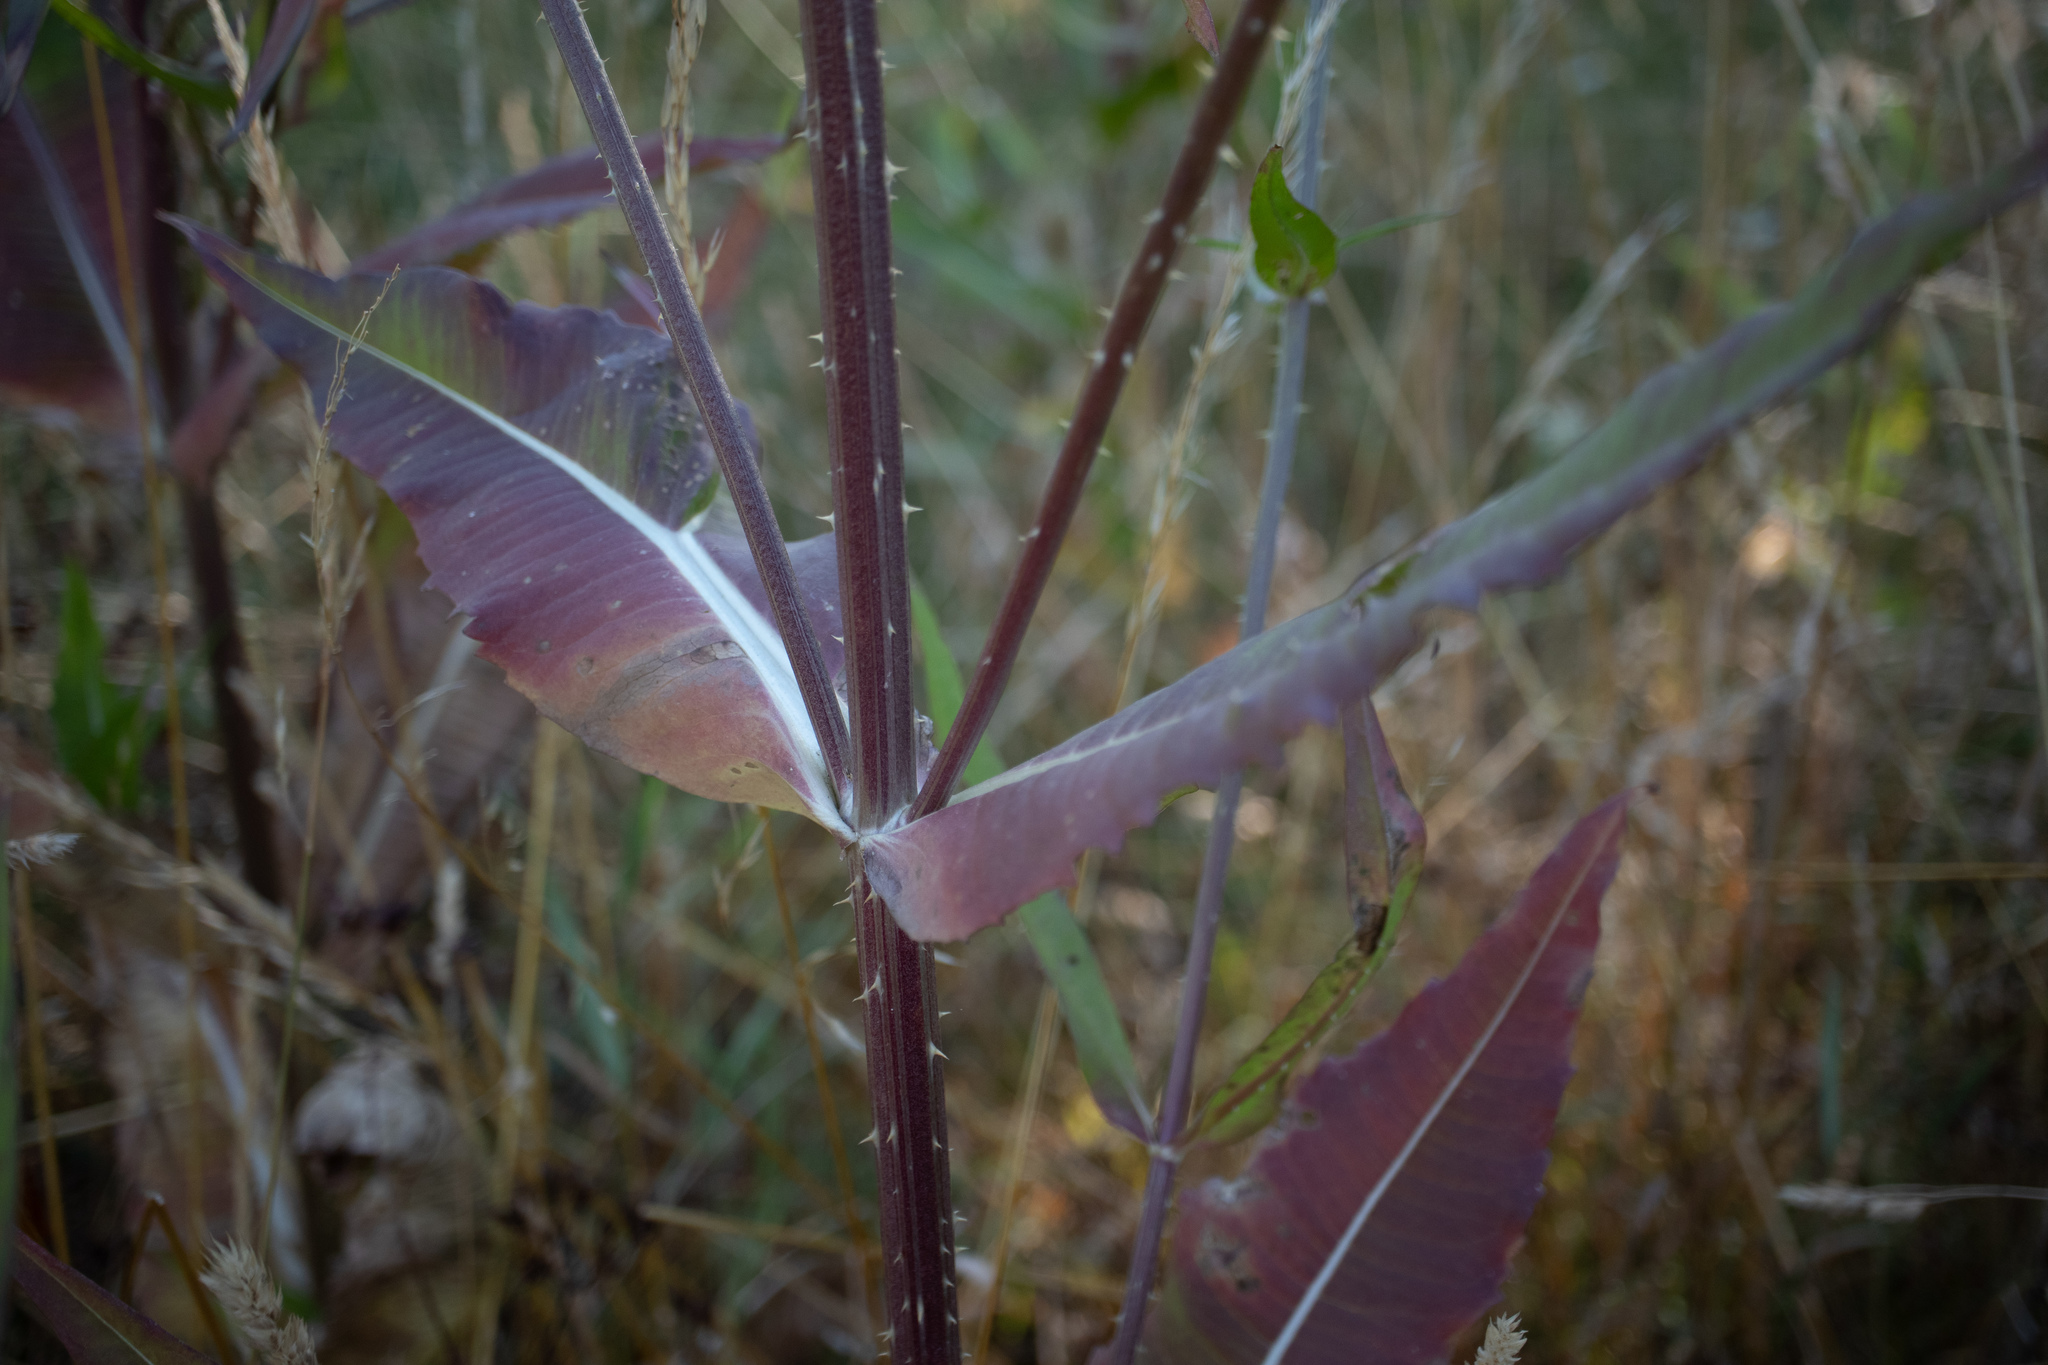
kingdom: Plantae
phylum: Tracheophyta
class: Magnoliopsida
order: Dipsacales
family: Caprifoliaceae
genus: Dipsacus
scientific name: Dipsacus fullonum
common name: Teasel
